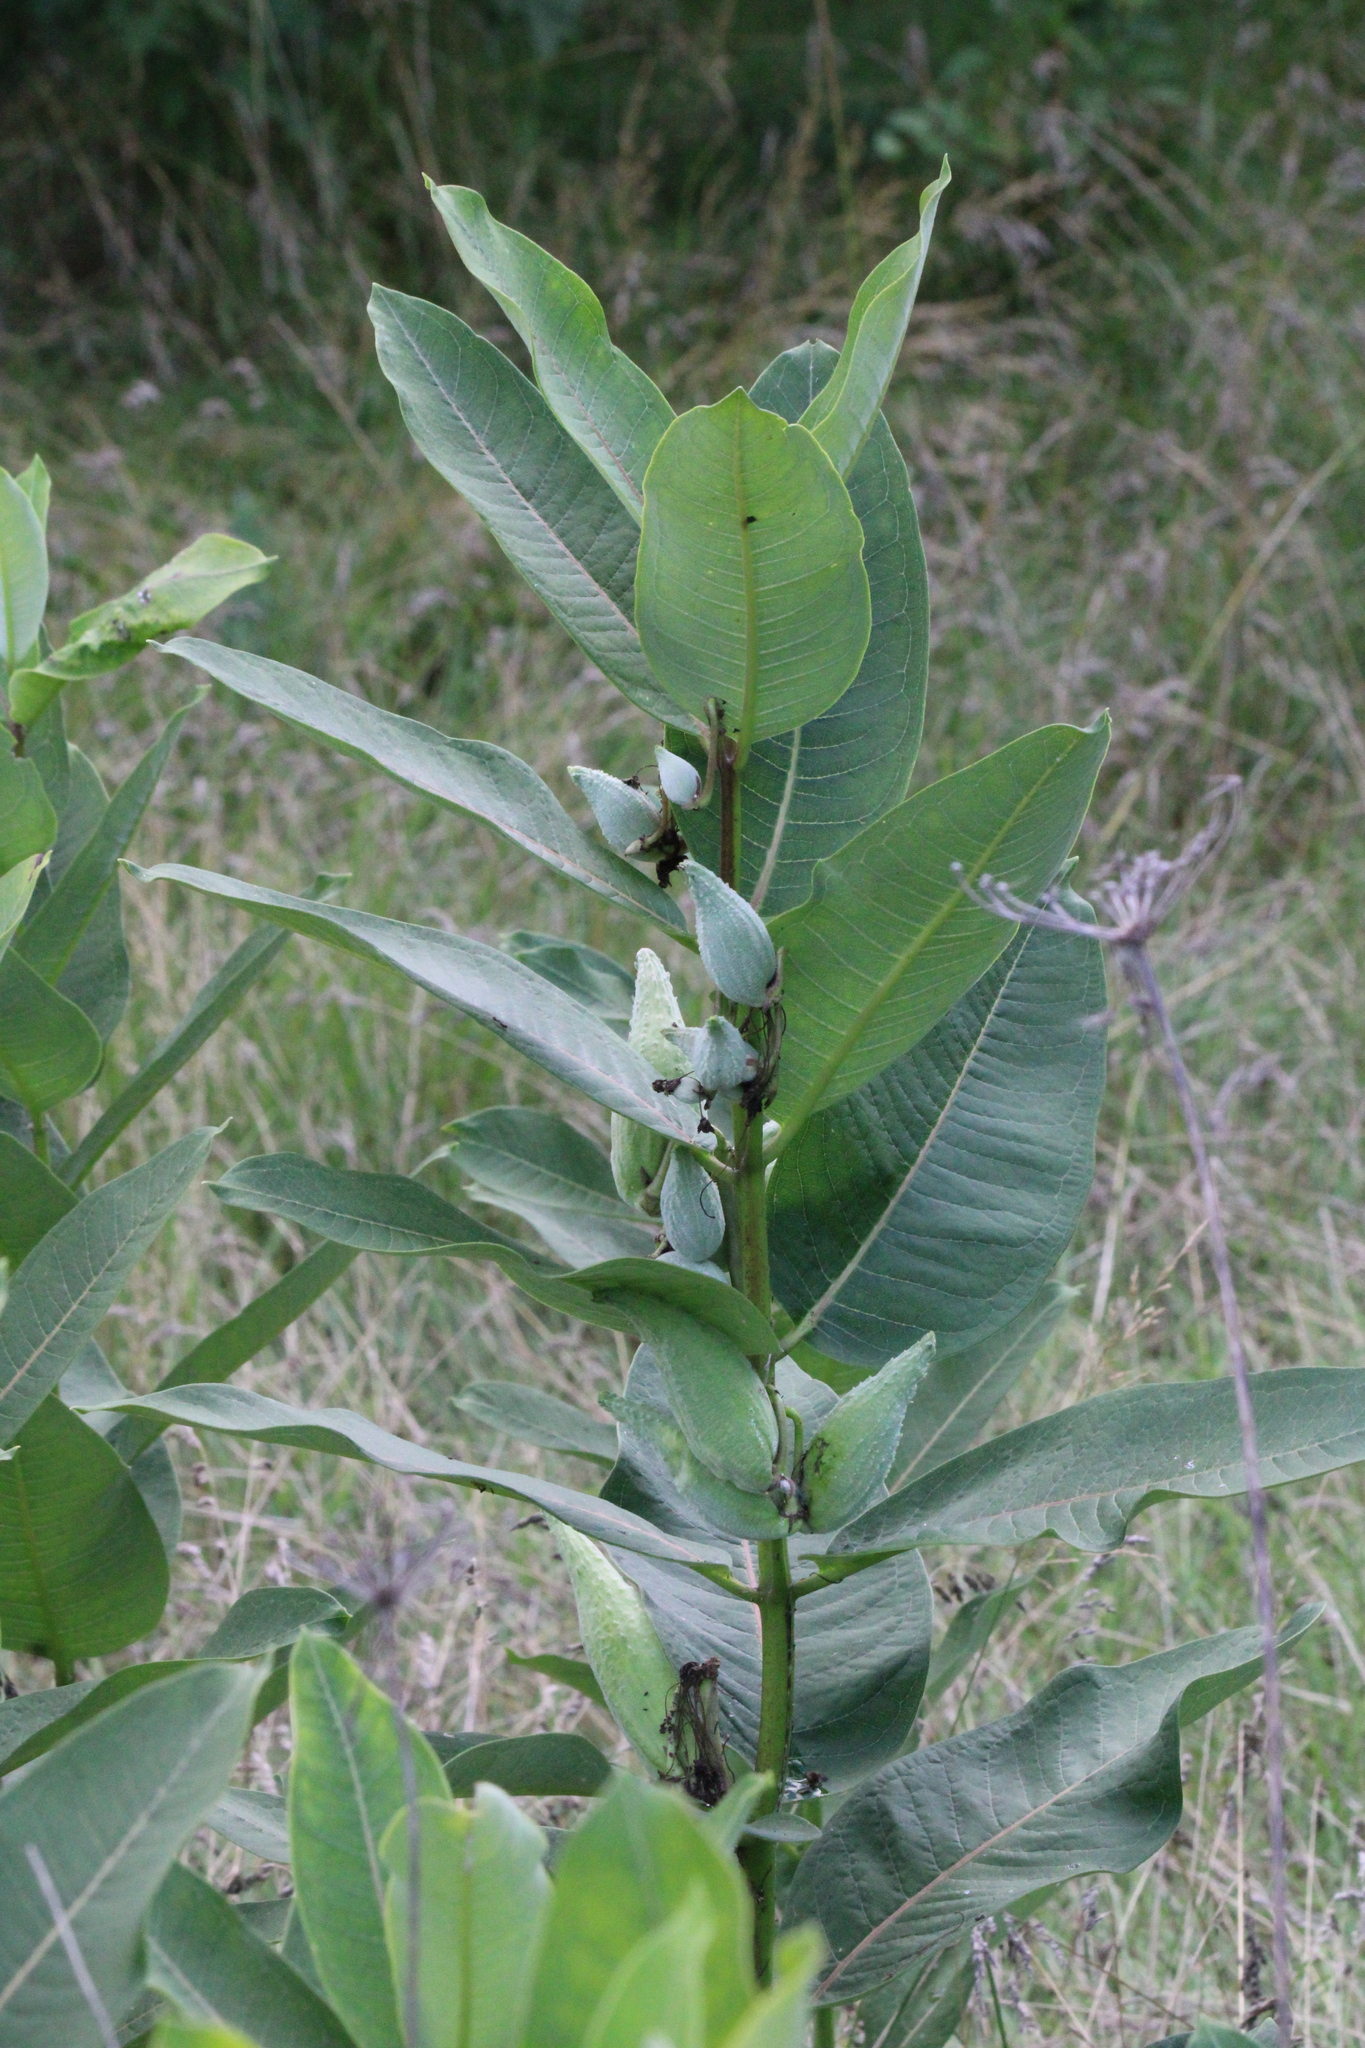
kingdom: Plantae
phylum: Tracheophyta
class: Magnoliopsida
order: Gentianales
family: Apocynaceae
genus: Asclepias
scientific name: Asclepias syriaca
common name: Common milkweed
